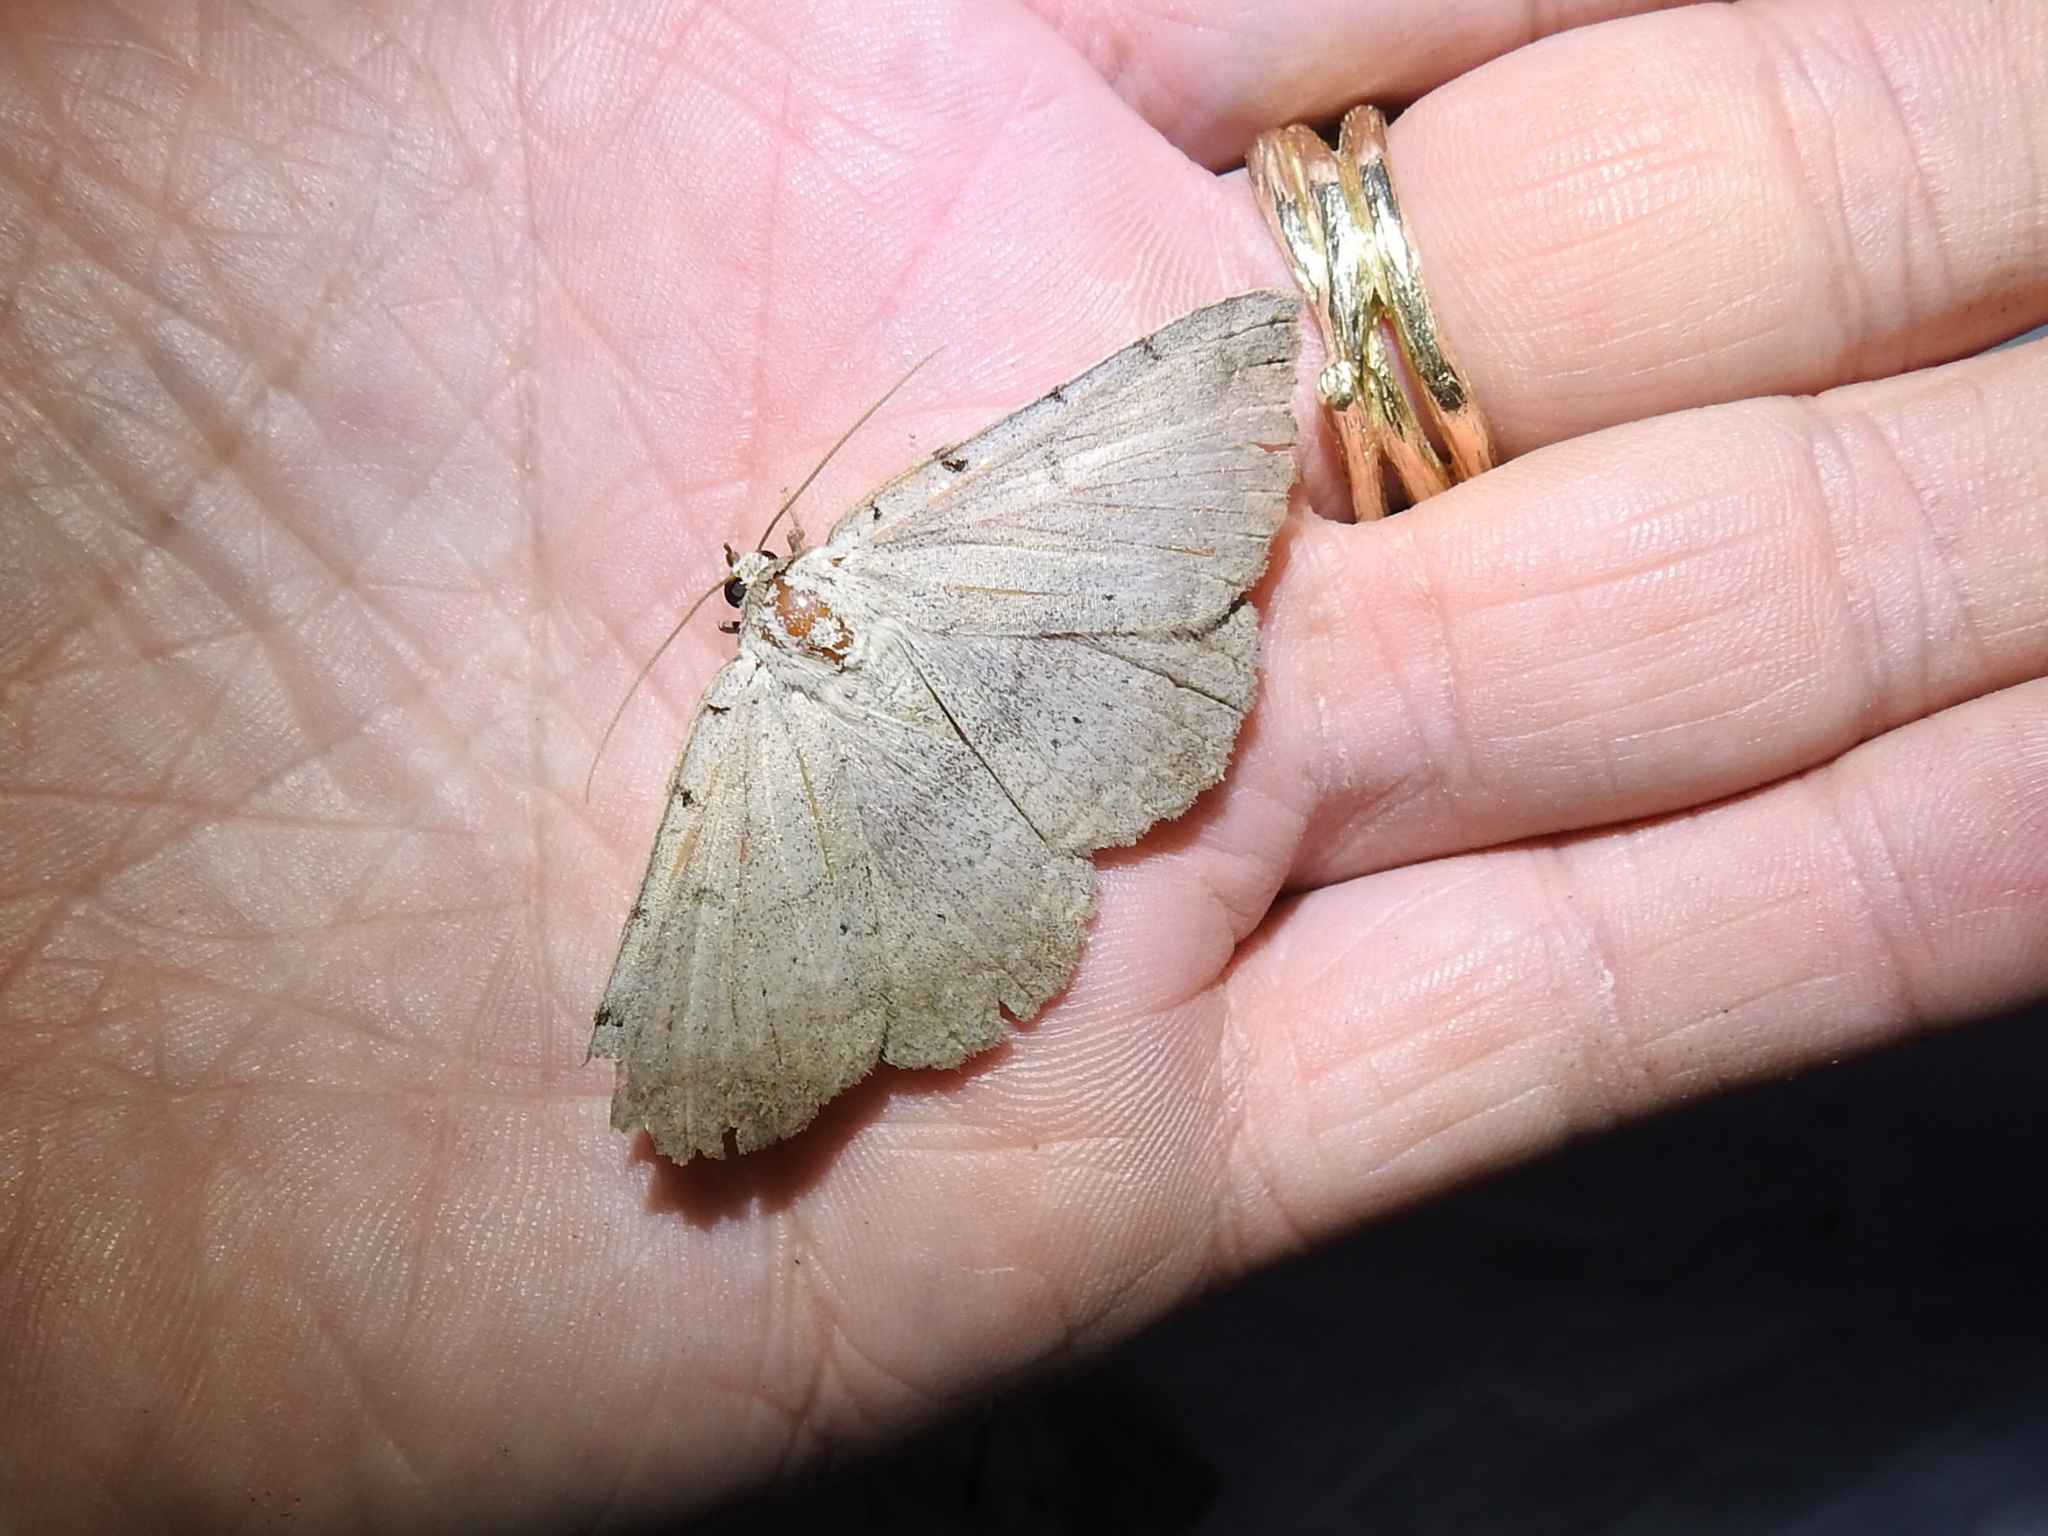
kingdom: Animalia
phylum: Arthropoda
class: Insecta
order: Lepidoptera
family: Erebidae
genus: Spiloloma
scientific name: Spiloloma lunilinea
